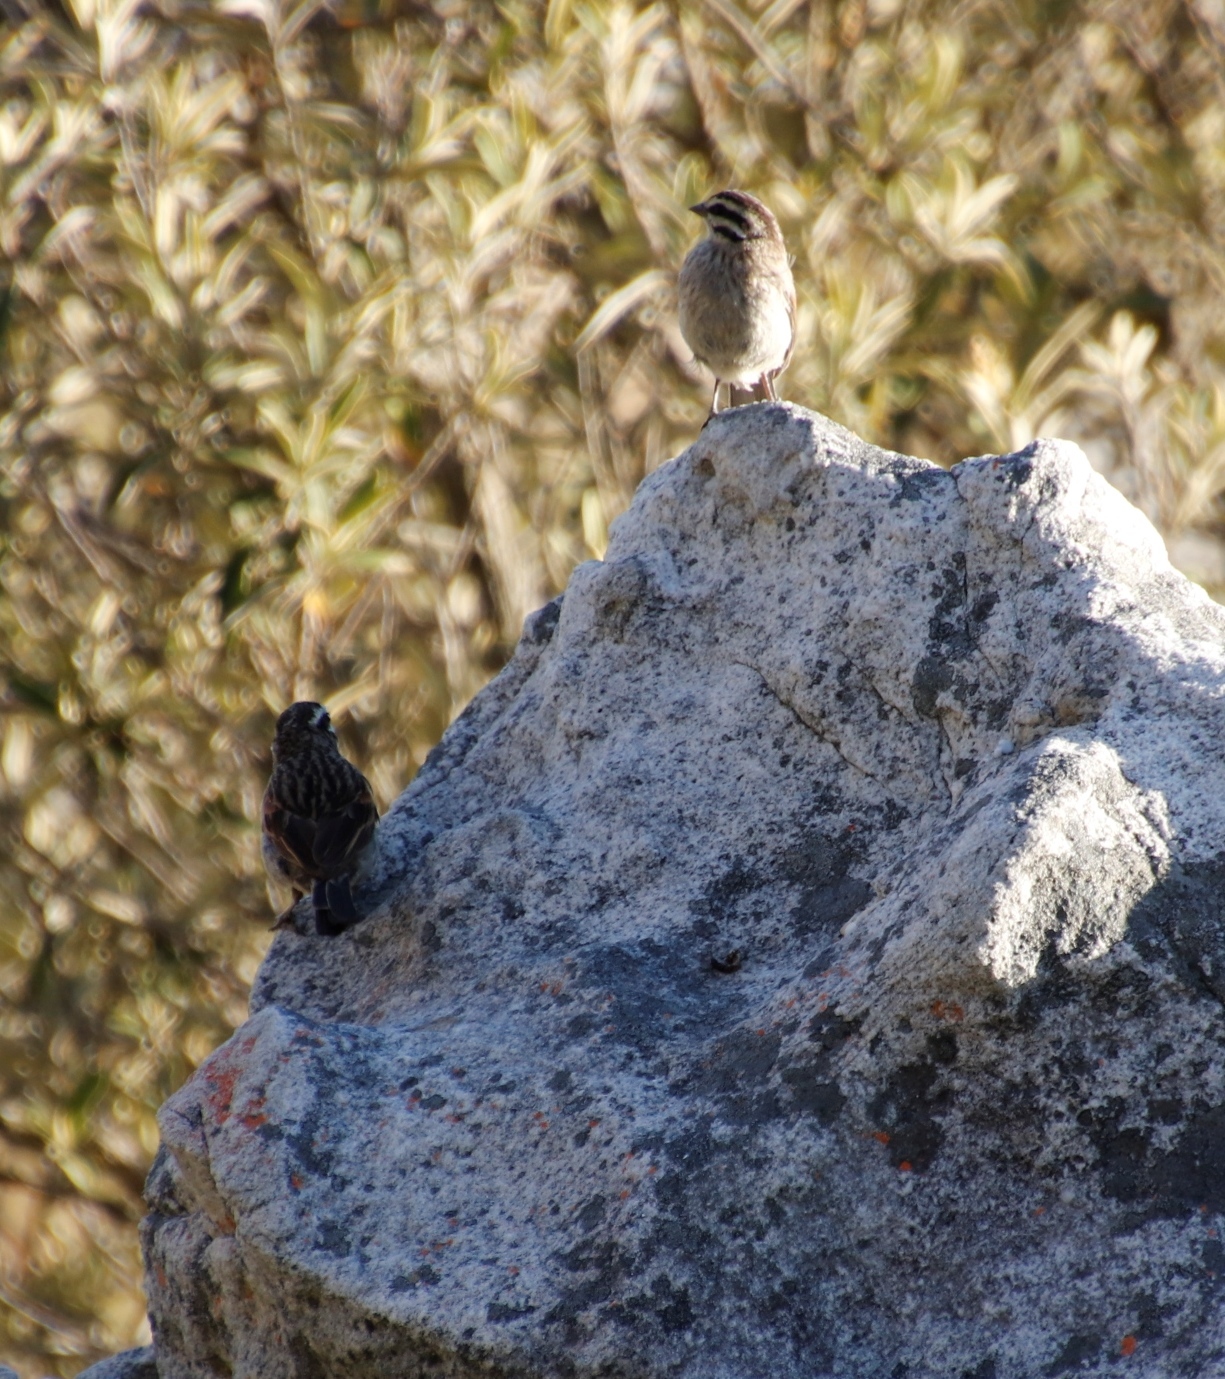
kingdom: Animalia
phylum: Chordata
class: Aves
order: Passeriformes
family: Emberizidae
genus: Emberiza
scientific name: Emberiza capensis
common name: Cape bunting
